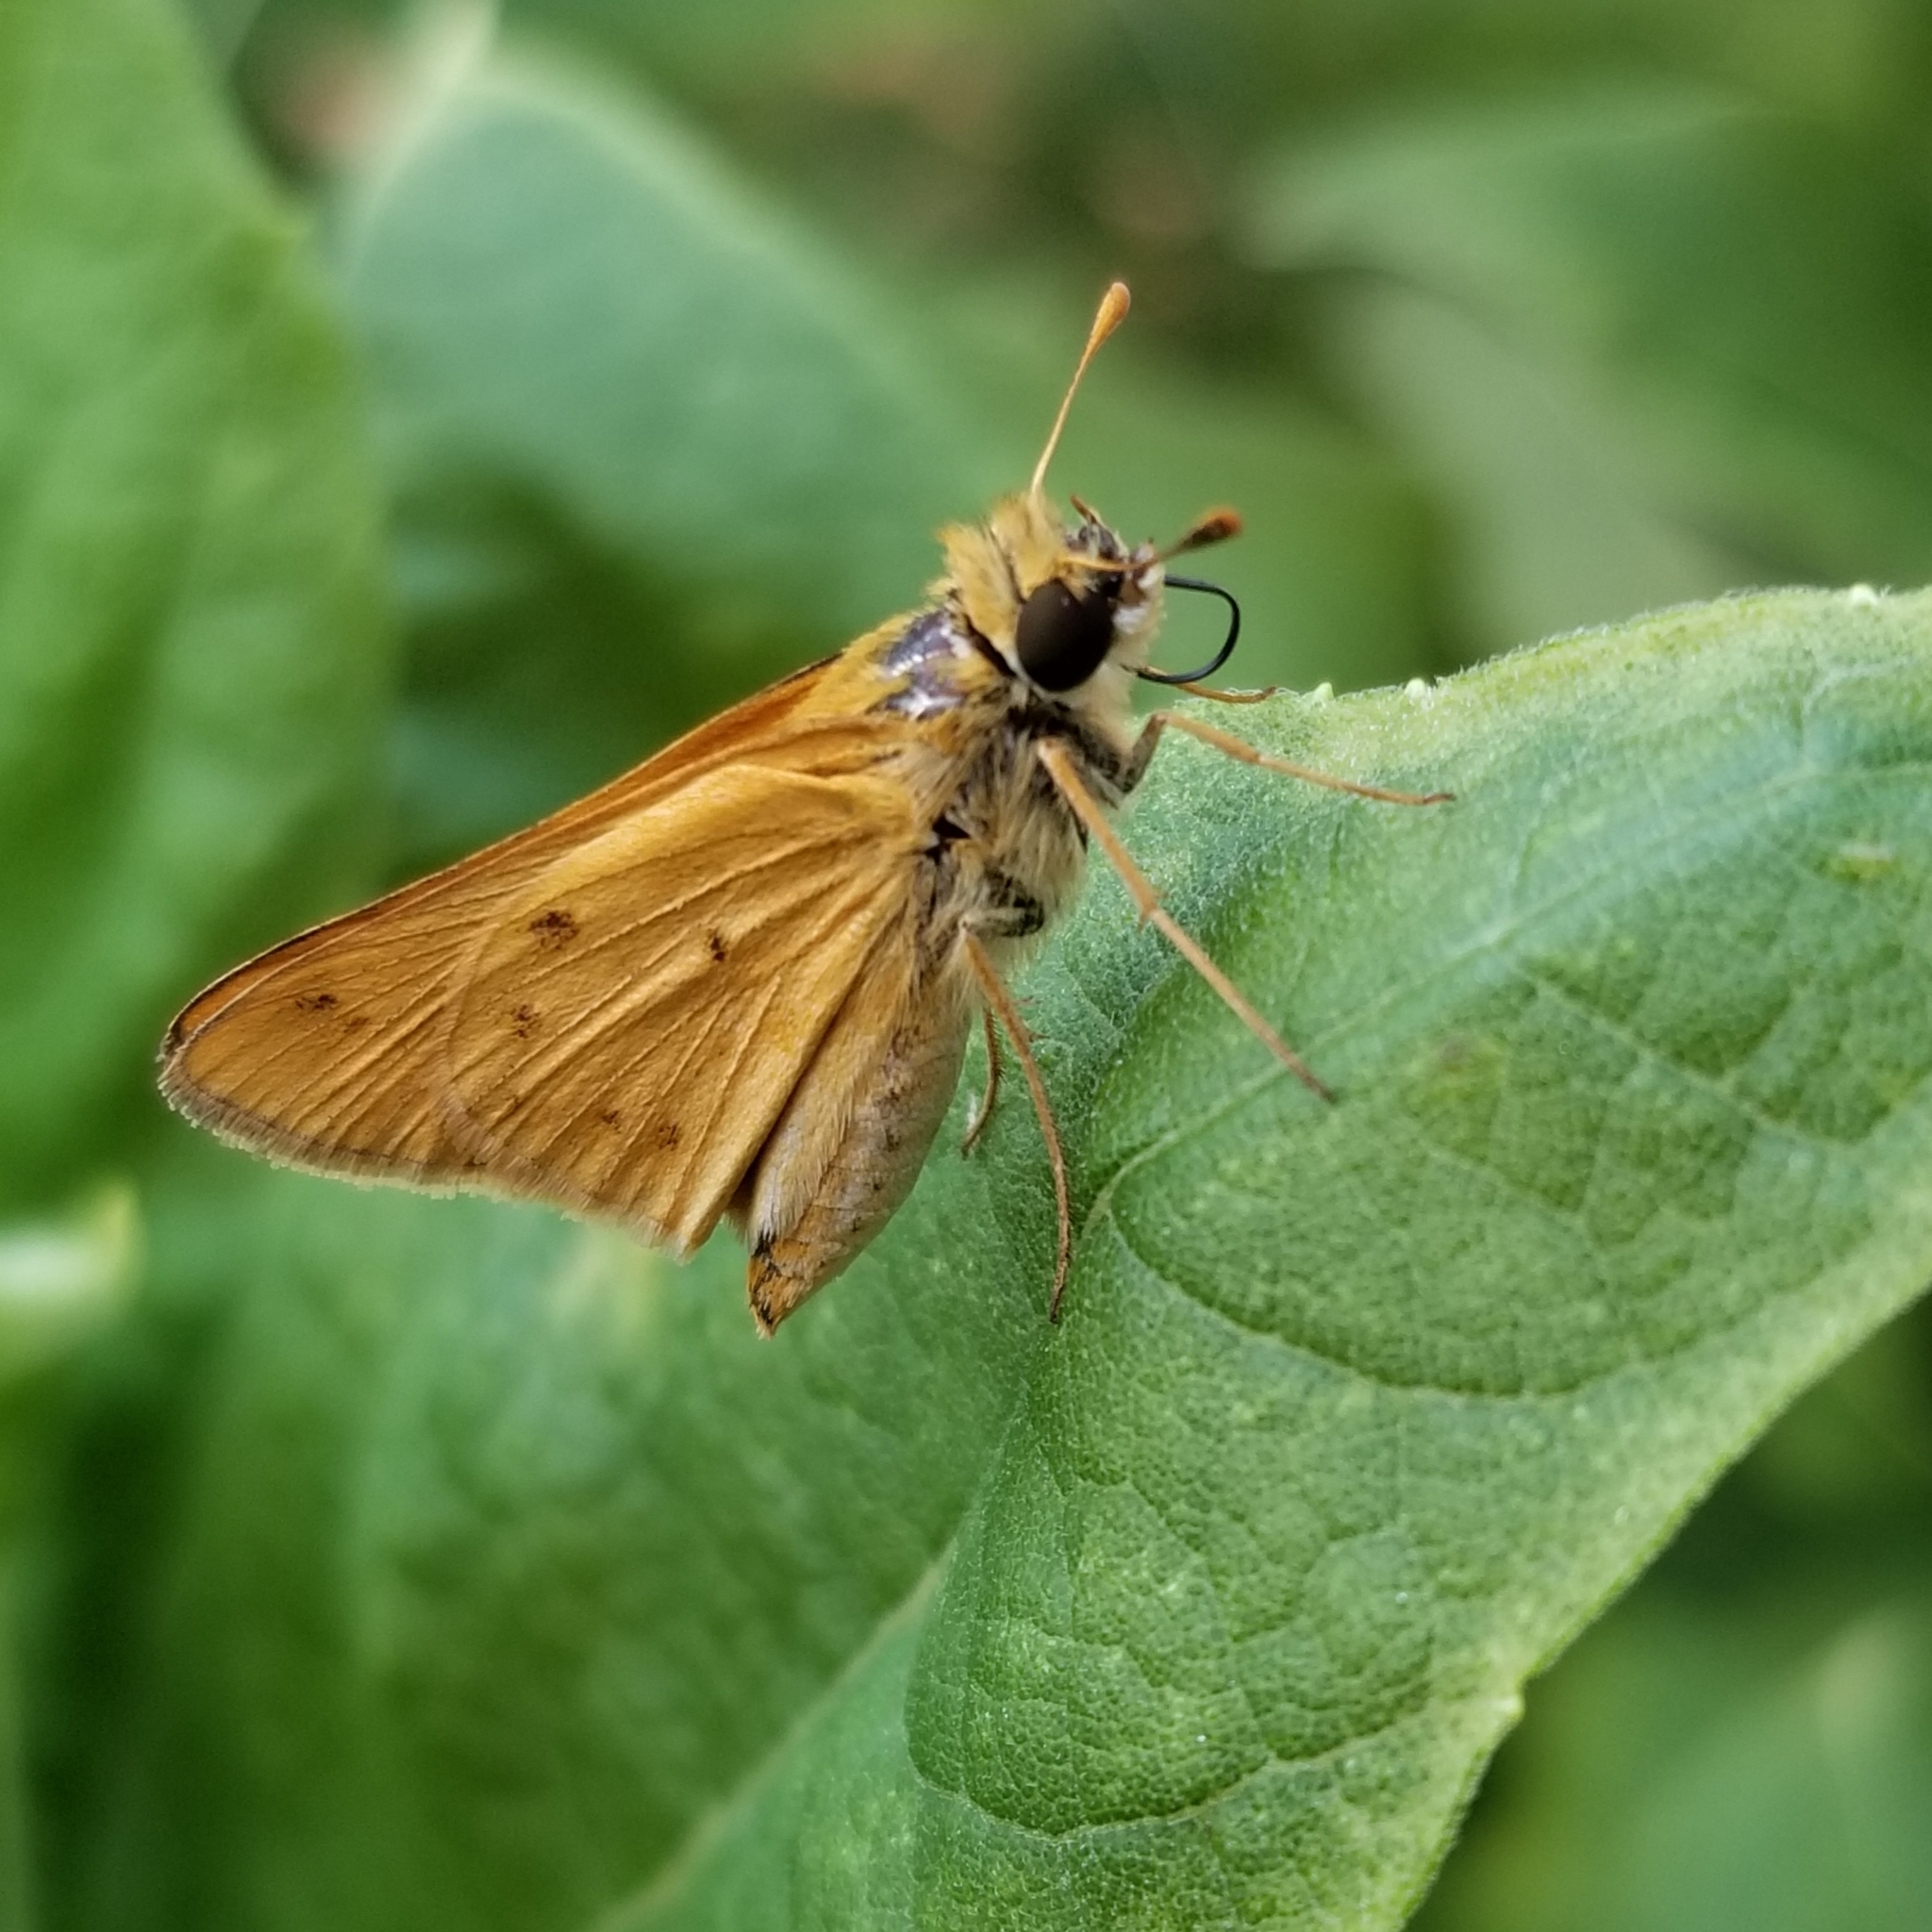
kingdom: Animalia
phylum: Arthropoda
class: Insecta
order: Lepidoptera
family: Hesperiidae
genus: Hylephila
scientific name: Hylephila phyleus
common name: Fiery skipper
